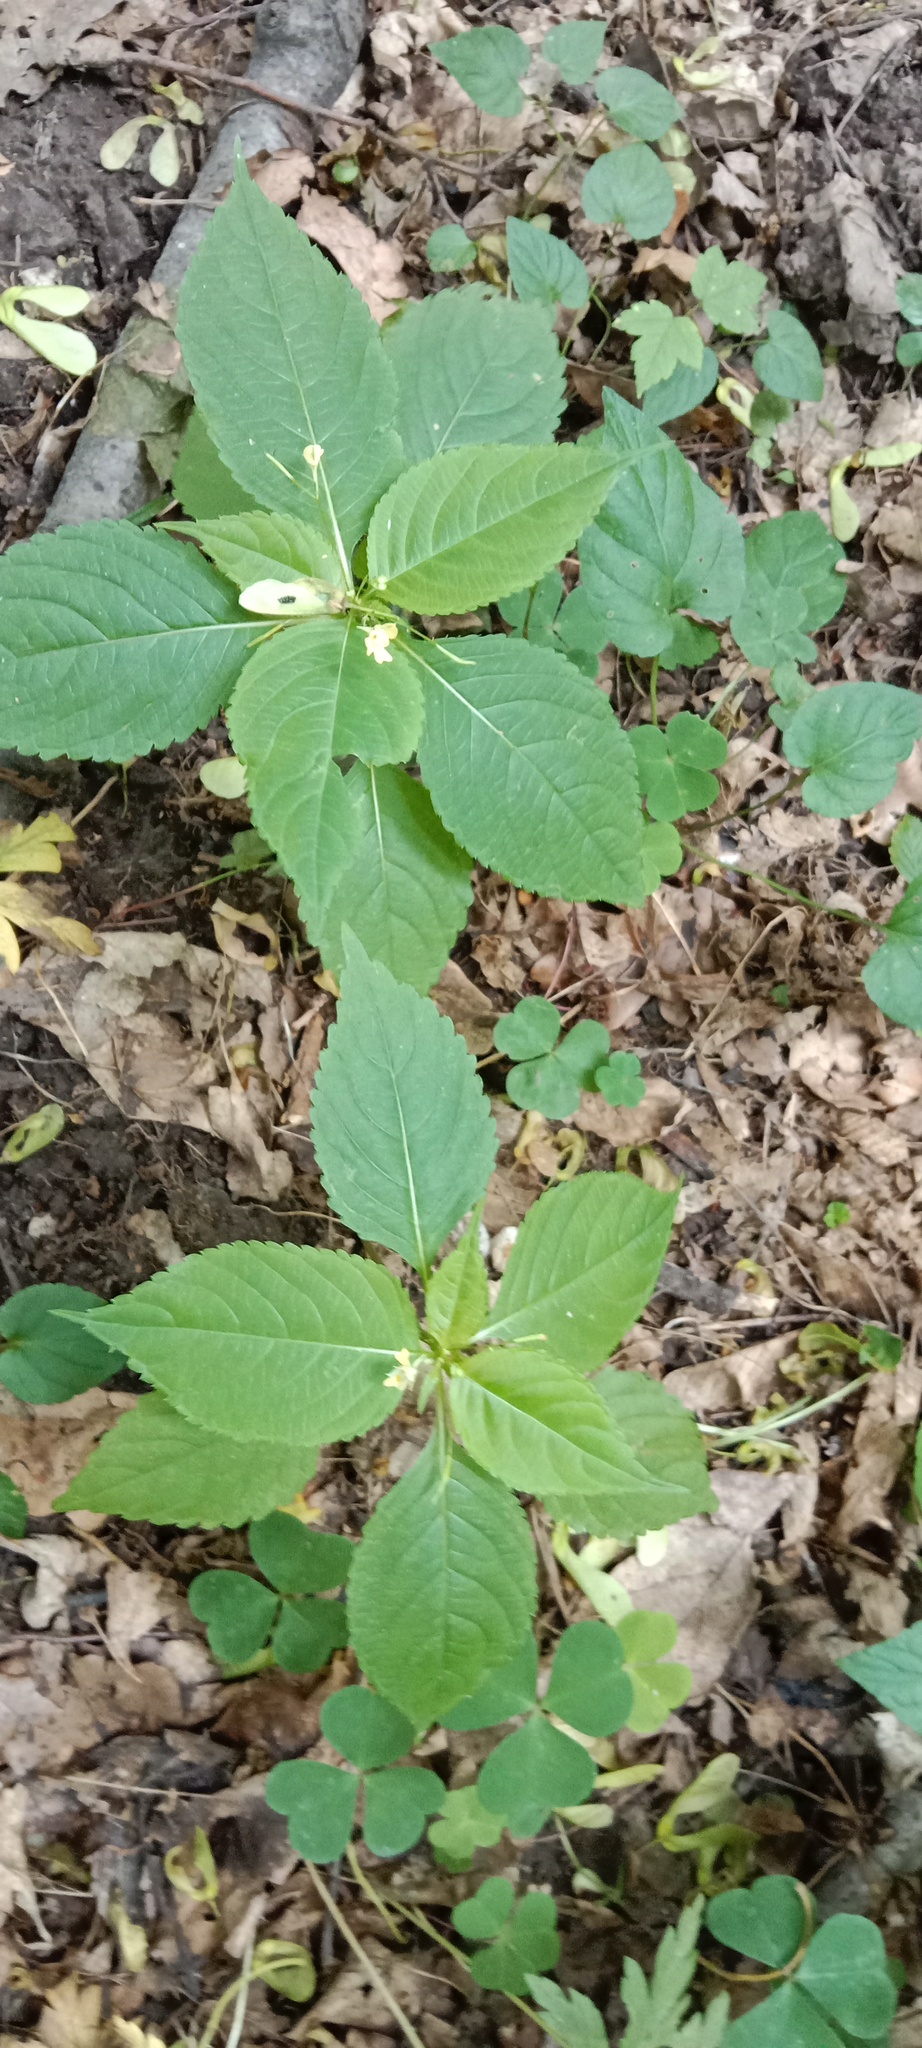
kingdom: Plantae
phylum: Tracheophyta
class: Magnoliopsida
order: Ericales
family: Balsaminaceae
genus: Impatiens
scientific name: Impatiens parviflora
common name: Small balsam
